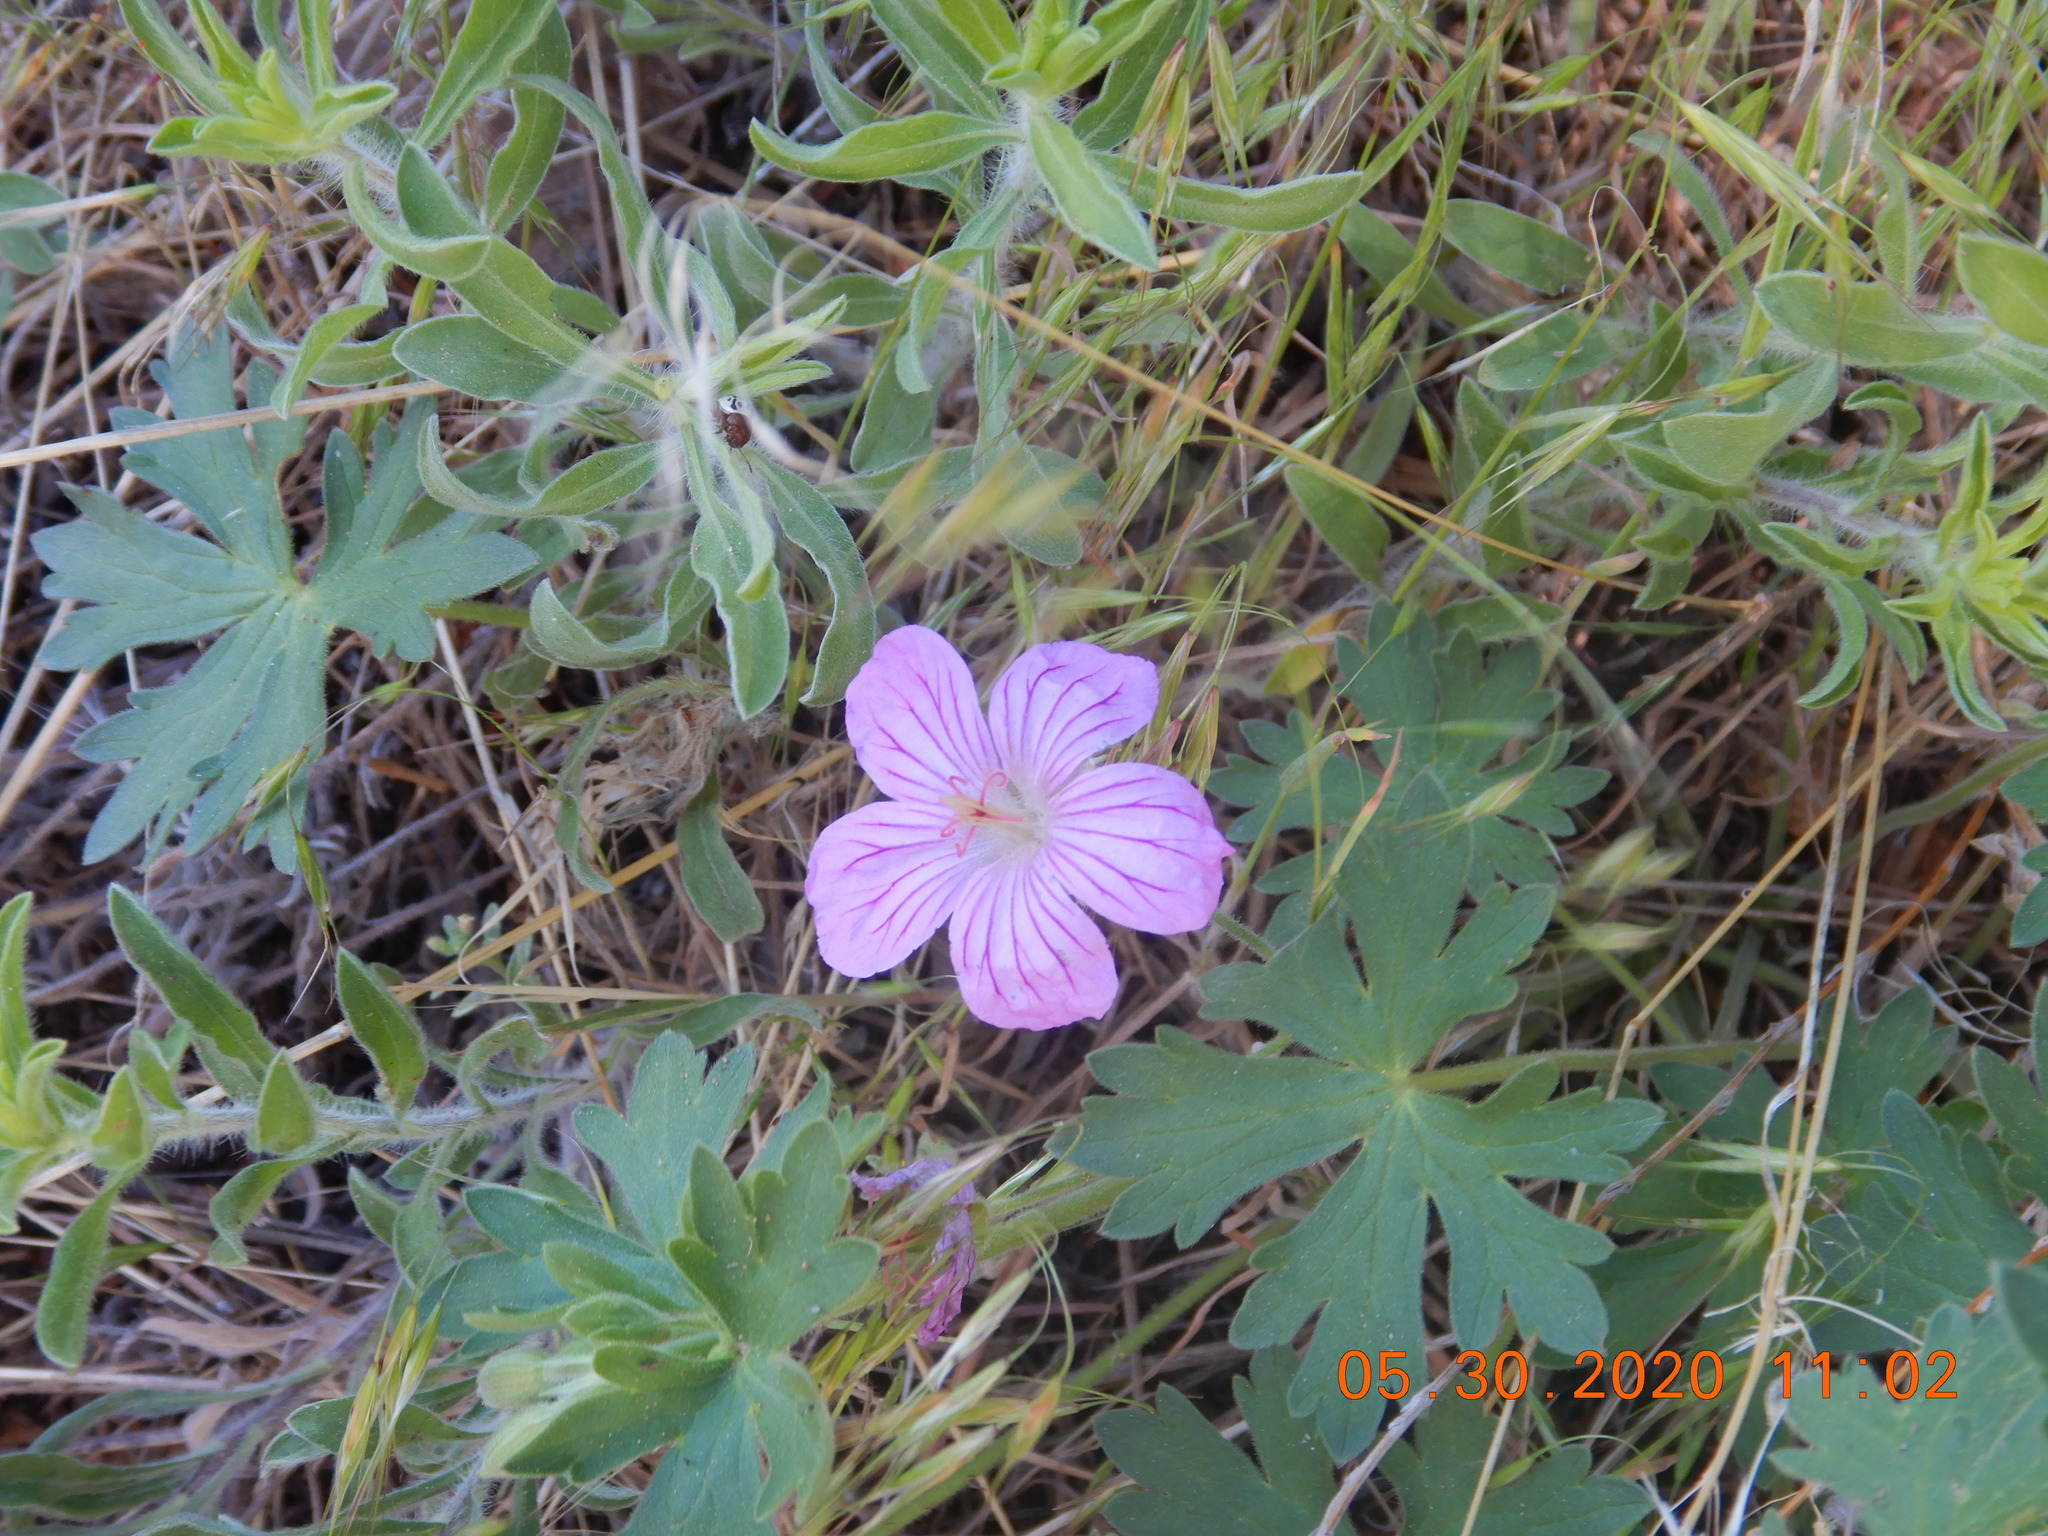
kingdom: Plantae
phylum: Tracheophyta
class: Magnoliopsida
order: Geraniales
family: Geraniaceae
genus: Geranium
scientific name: Geranium caespitosum
